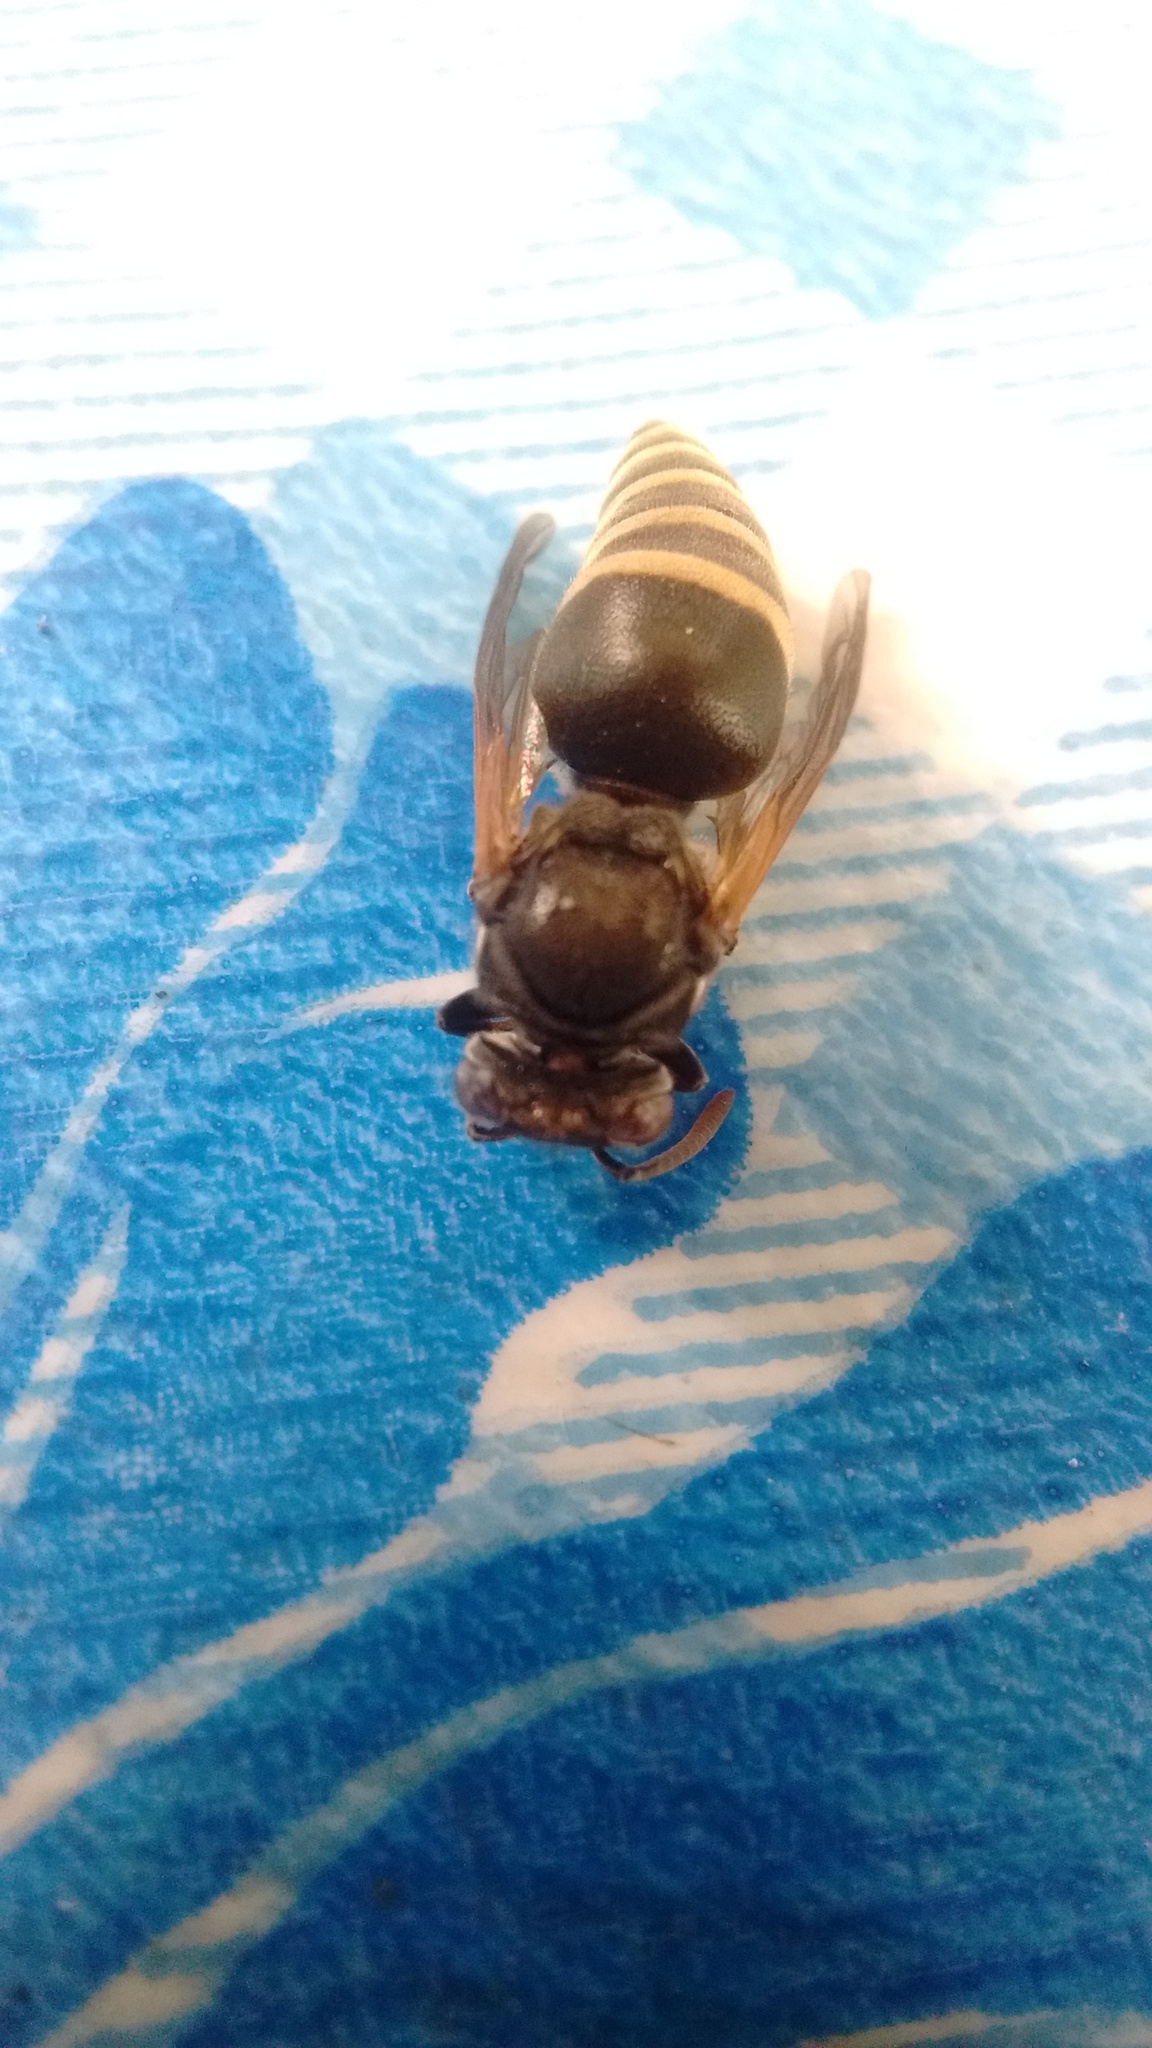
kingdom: Animalia
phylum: Arthropoda
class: Insecta
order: Hymenoptera
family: Vespidae
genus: Brachygastra
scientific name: Brachygastra lecheguana
